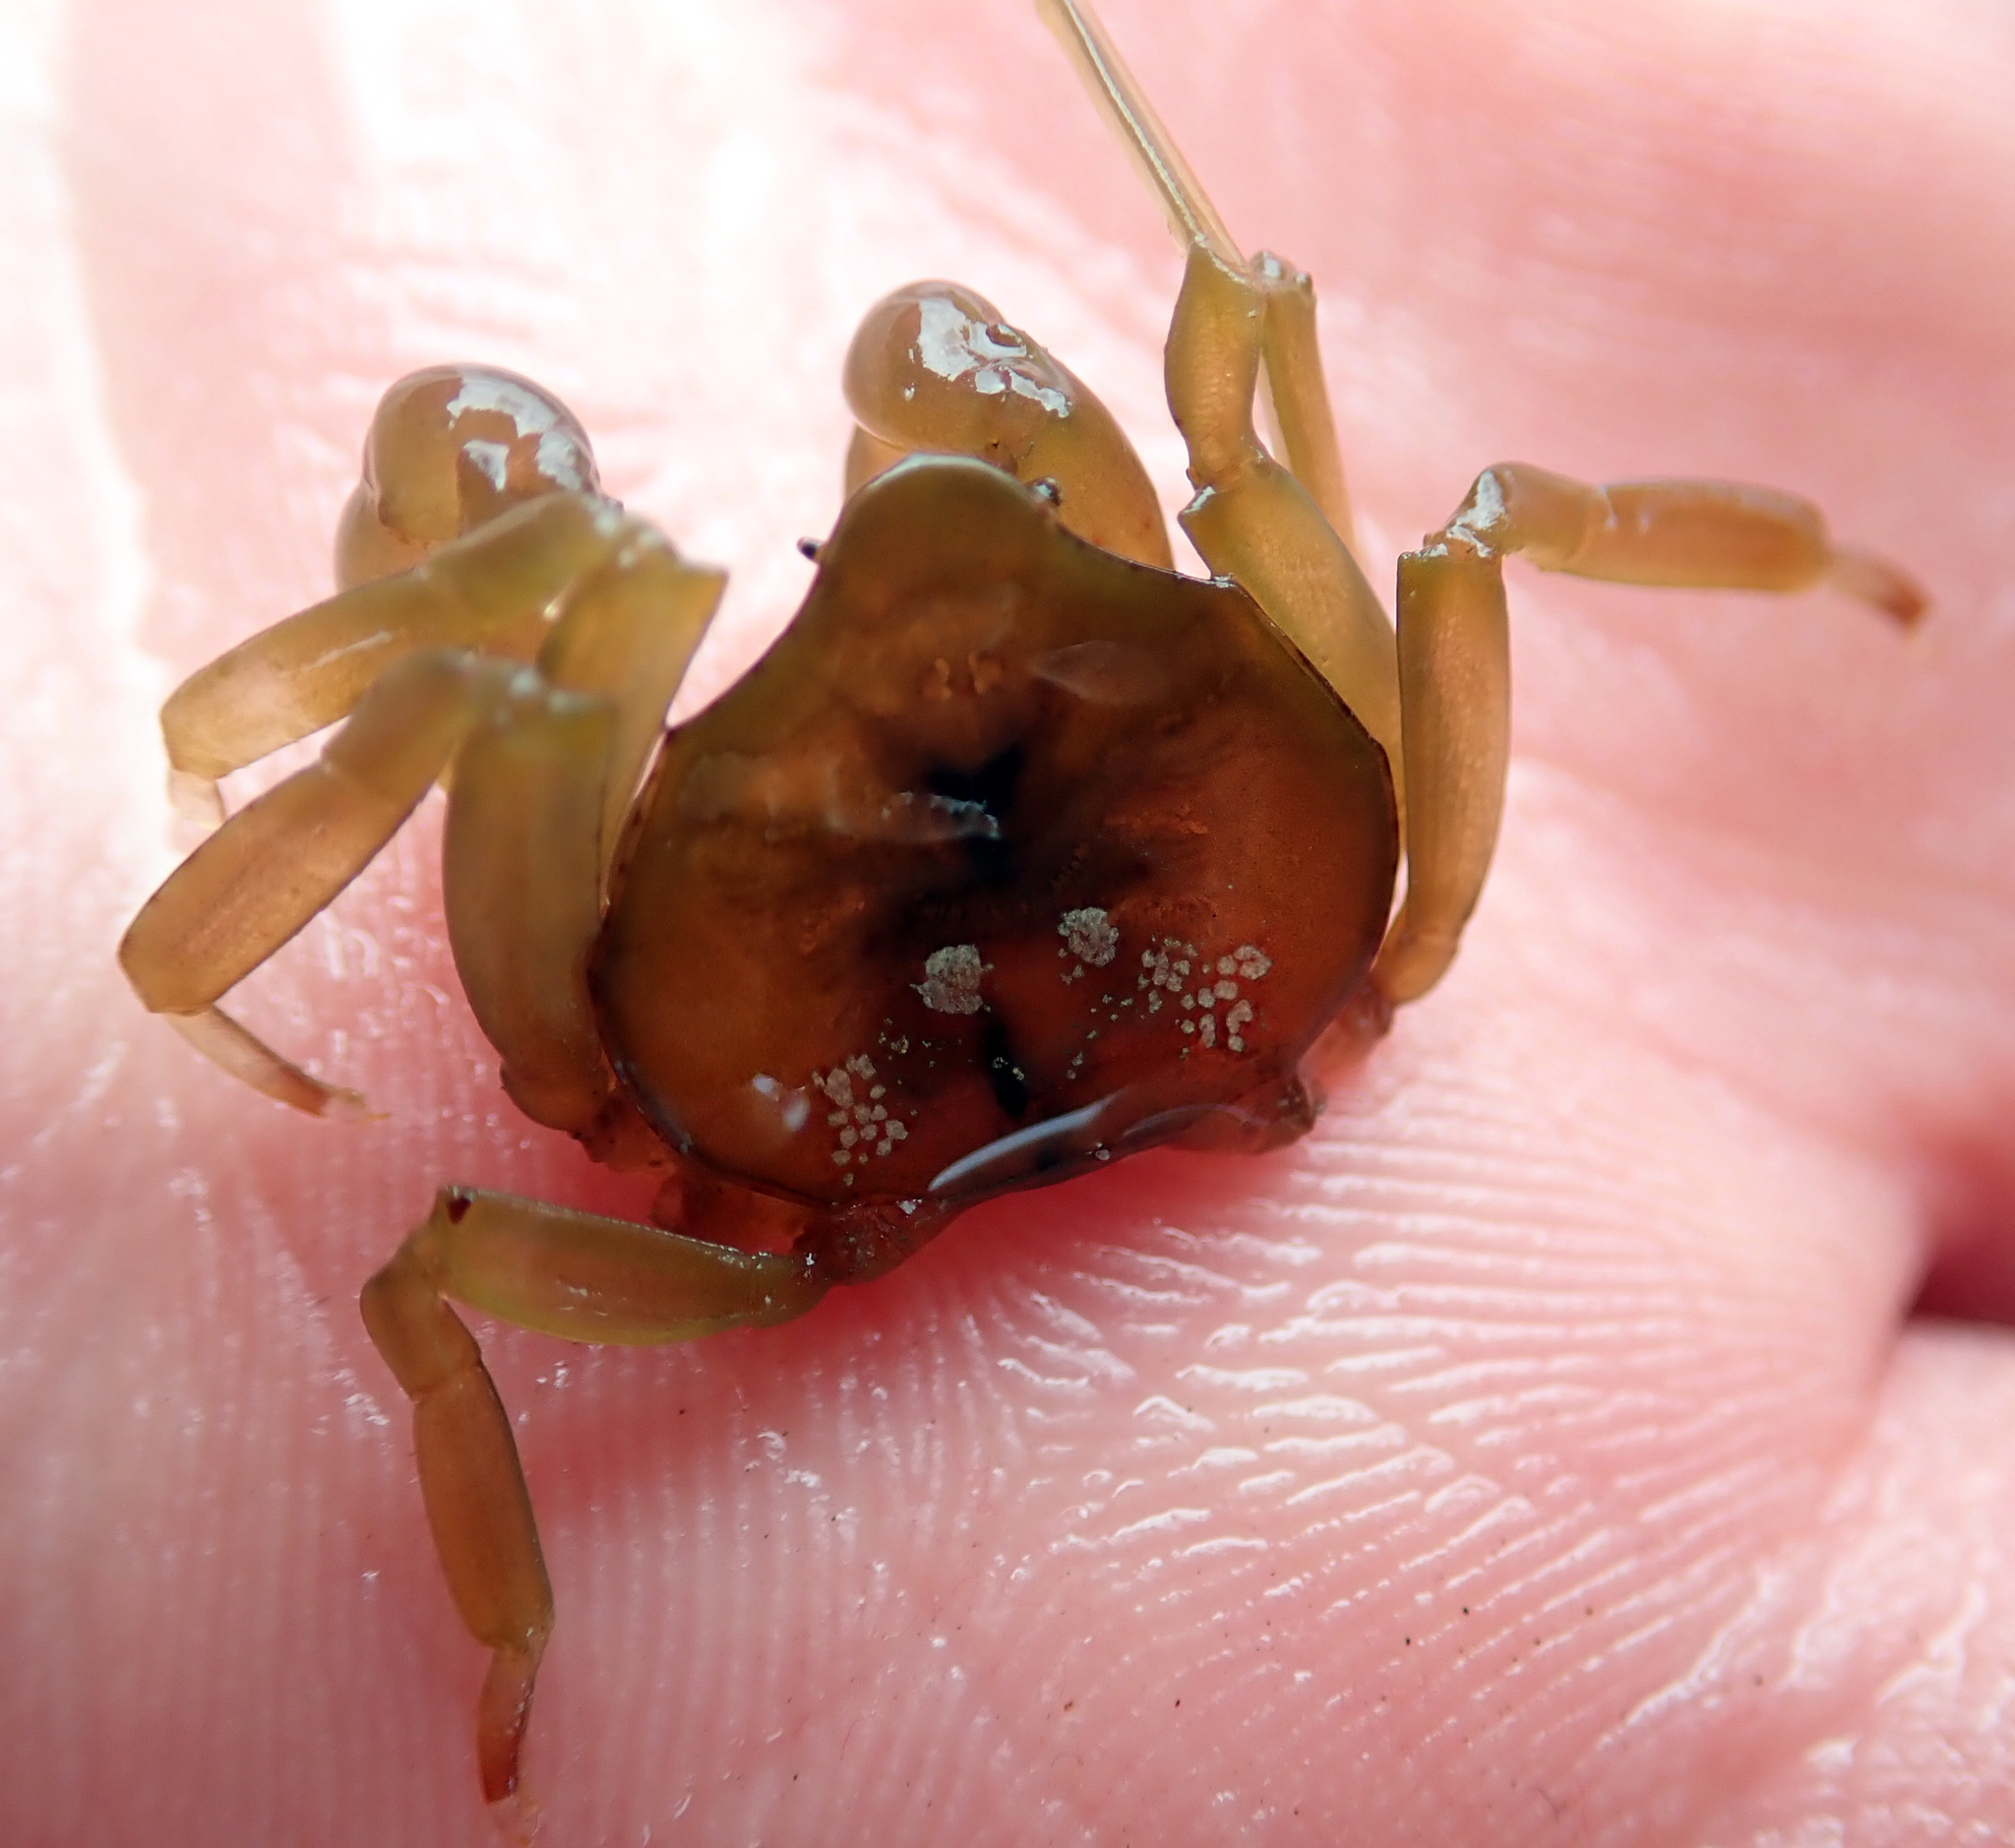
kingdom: Animalia
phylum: Arthropoda
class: Malacostraca
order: Decapoda
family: Hymenosomatidae
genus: Elamena
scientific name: Elamena producta
